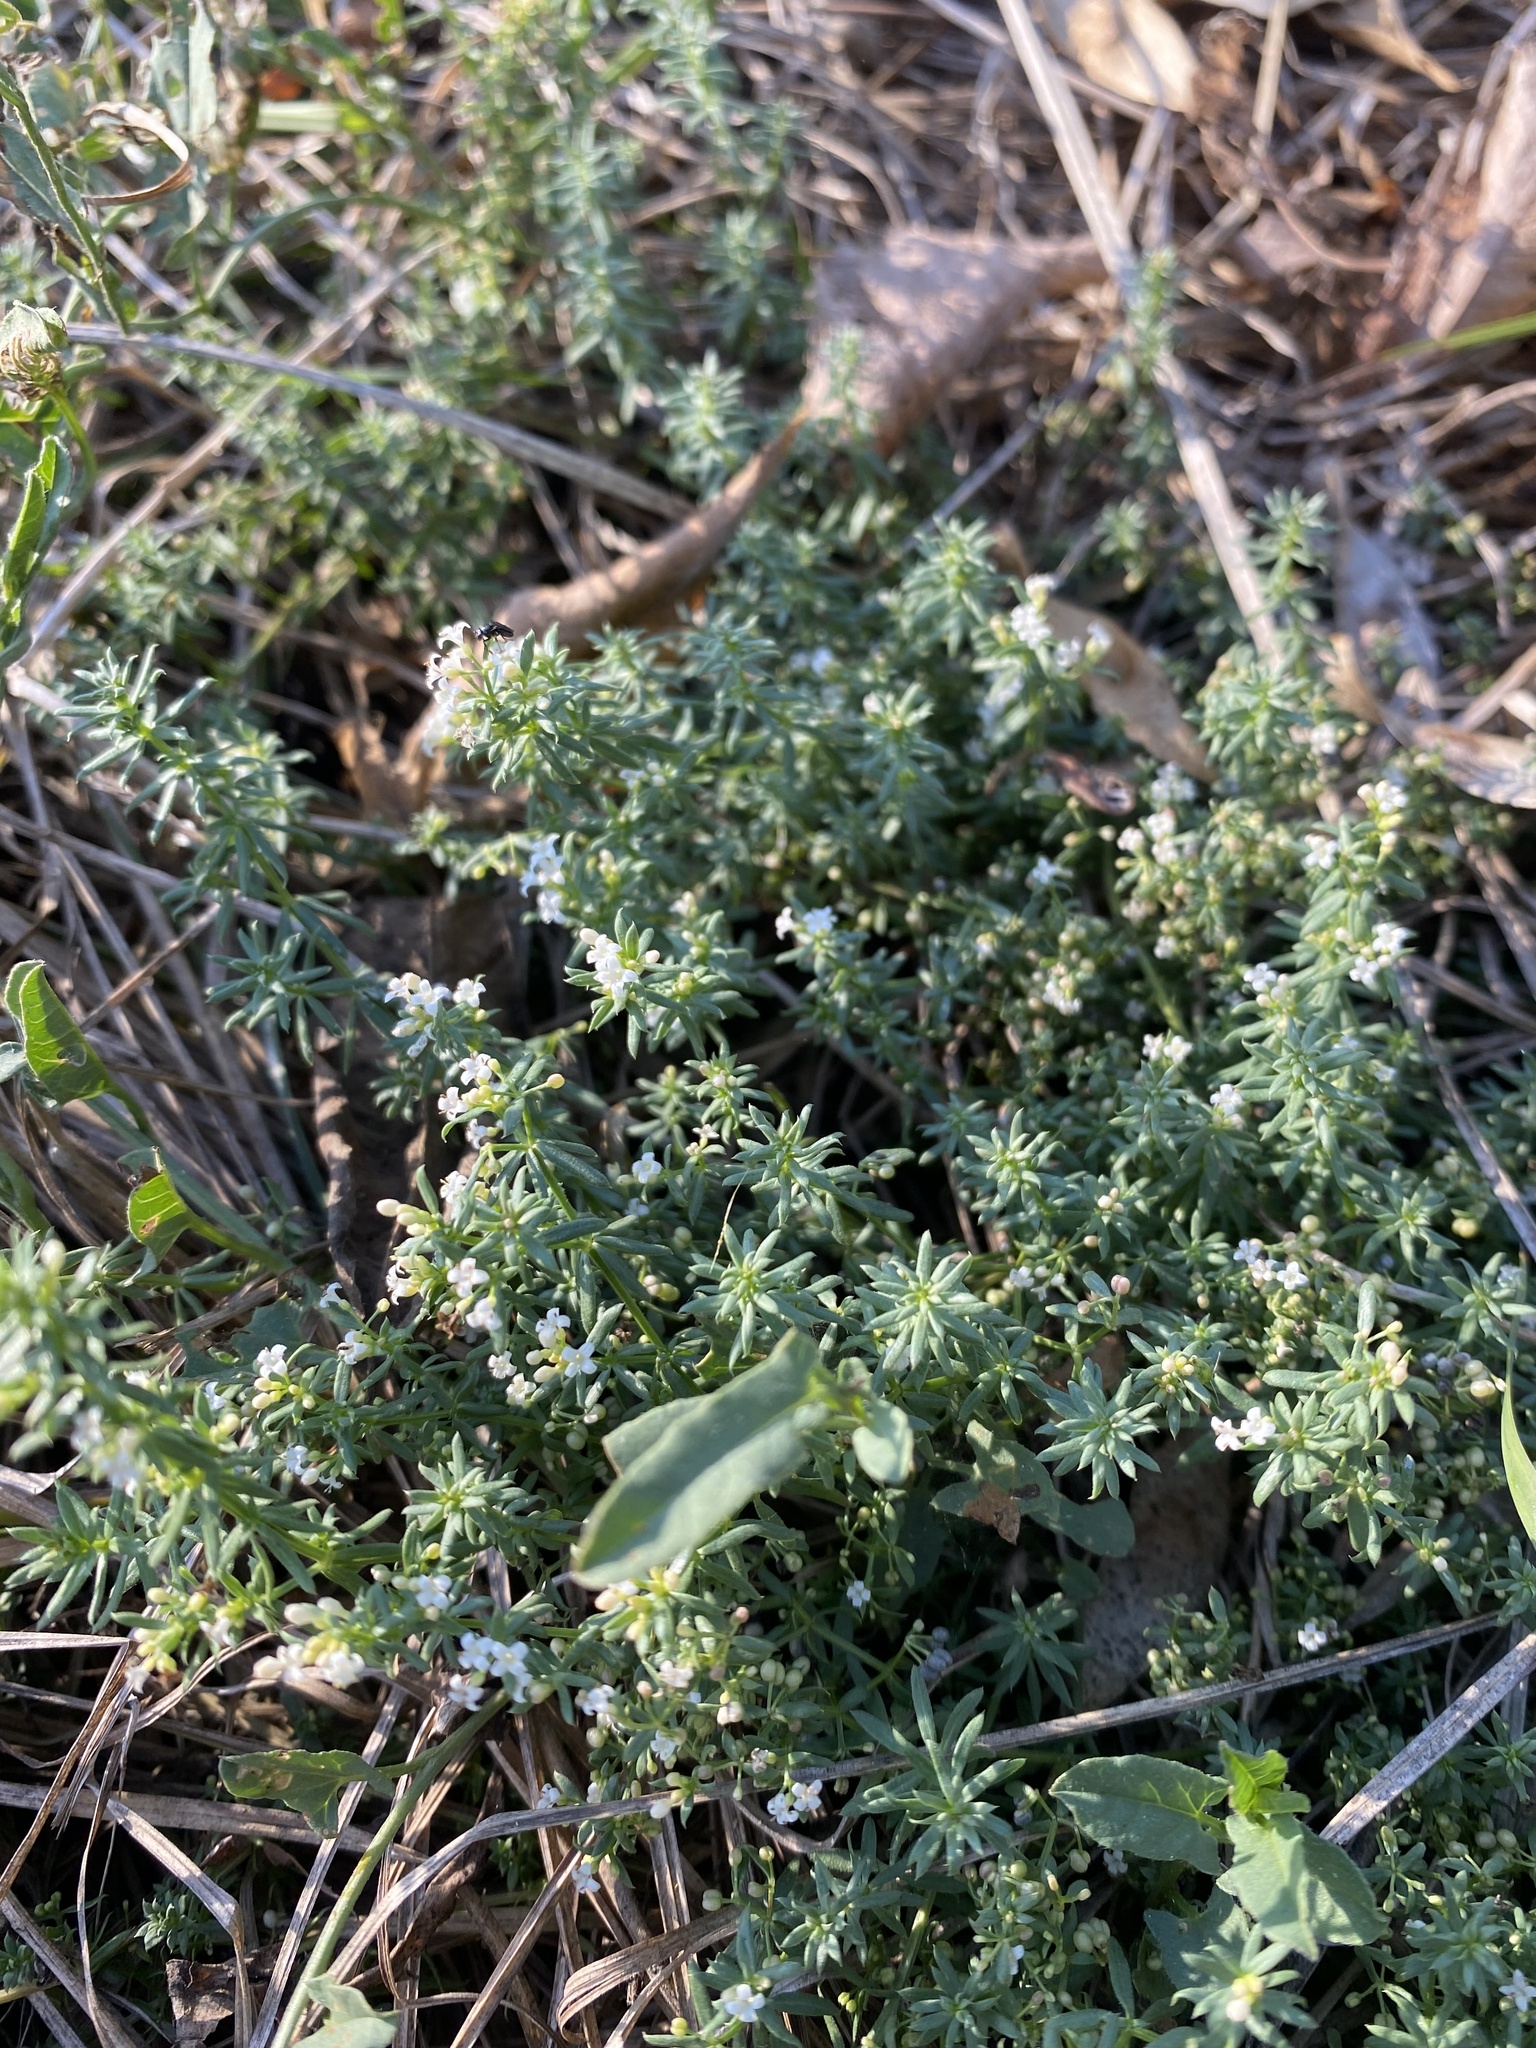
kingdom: Plantae
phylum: Tracheophyta
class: Magnoliopsida
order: Gentianales
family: Rubiaceae
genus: Galium
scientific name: Galium humifusum
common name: Spreading bedstraw
